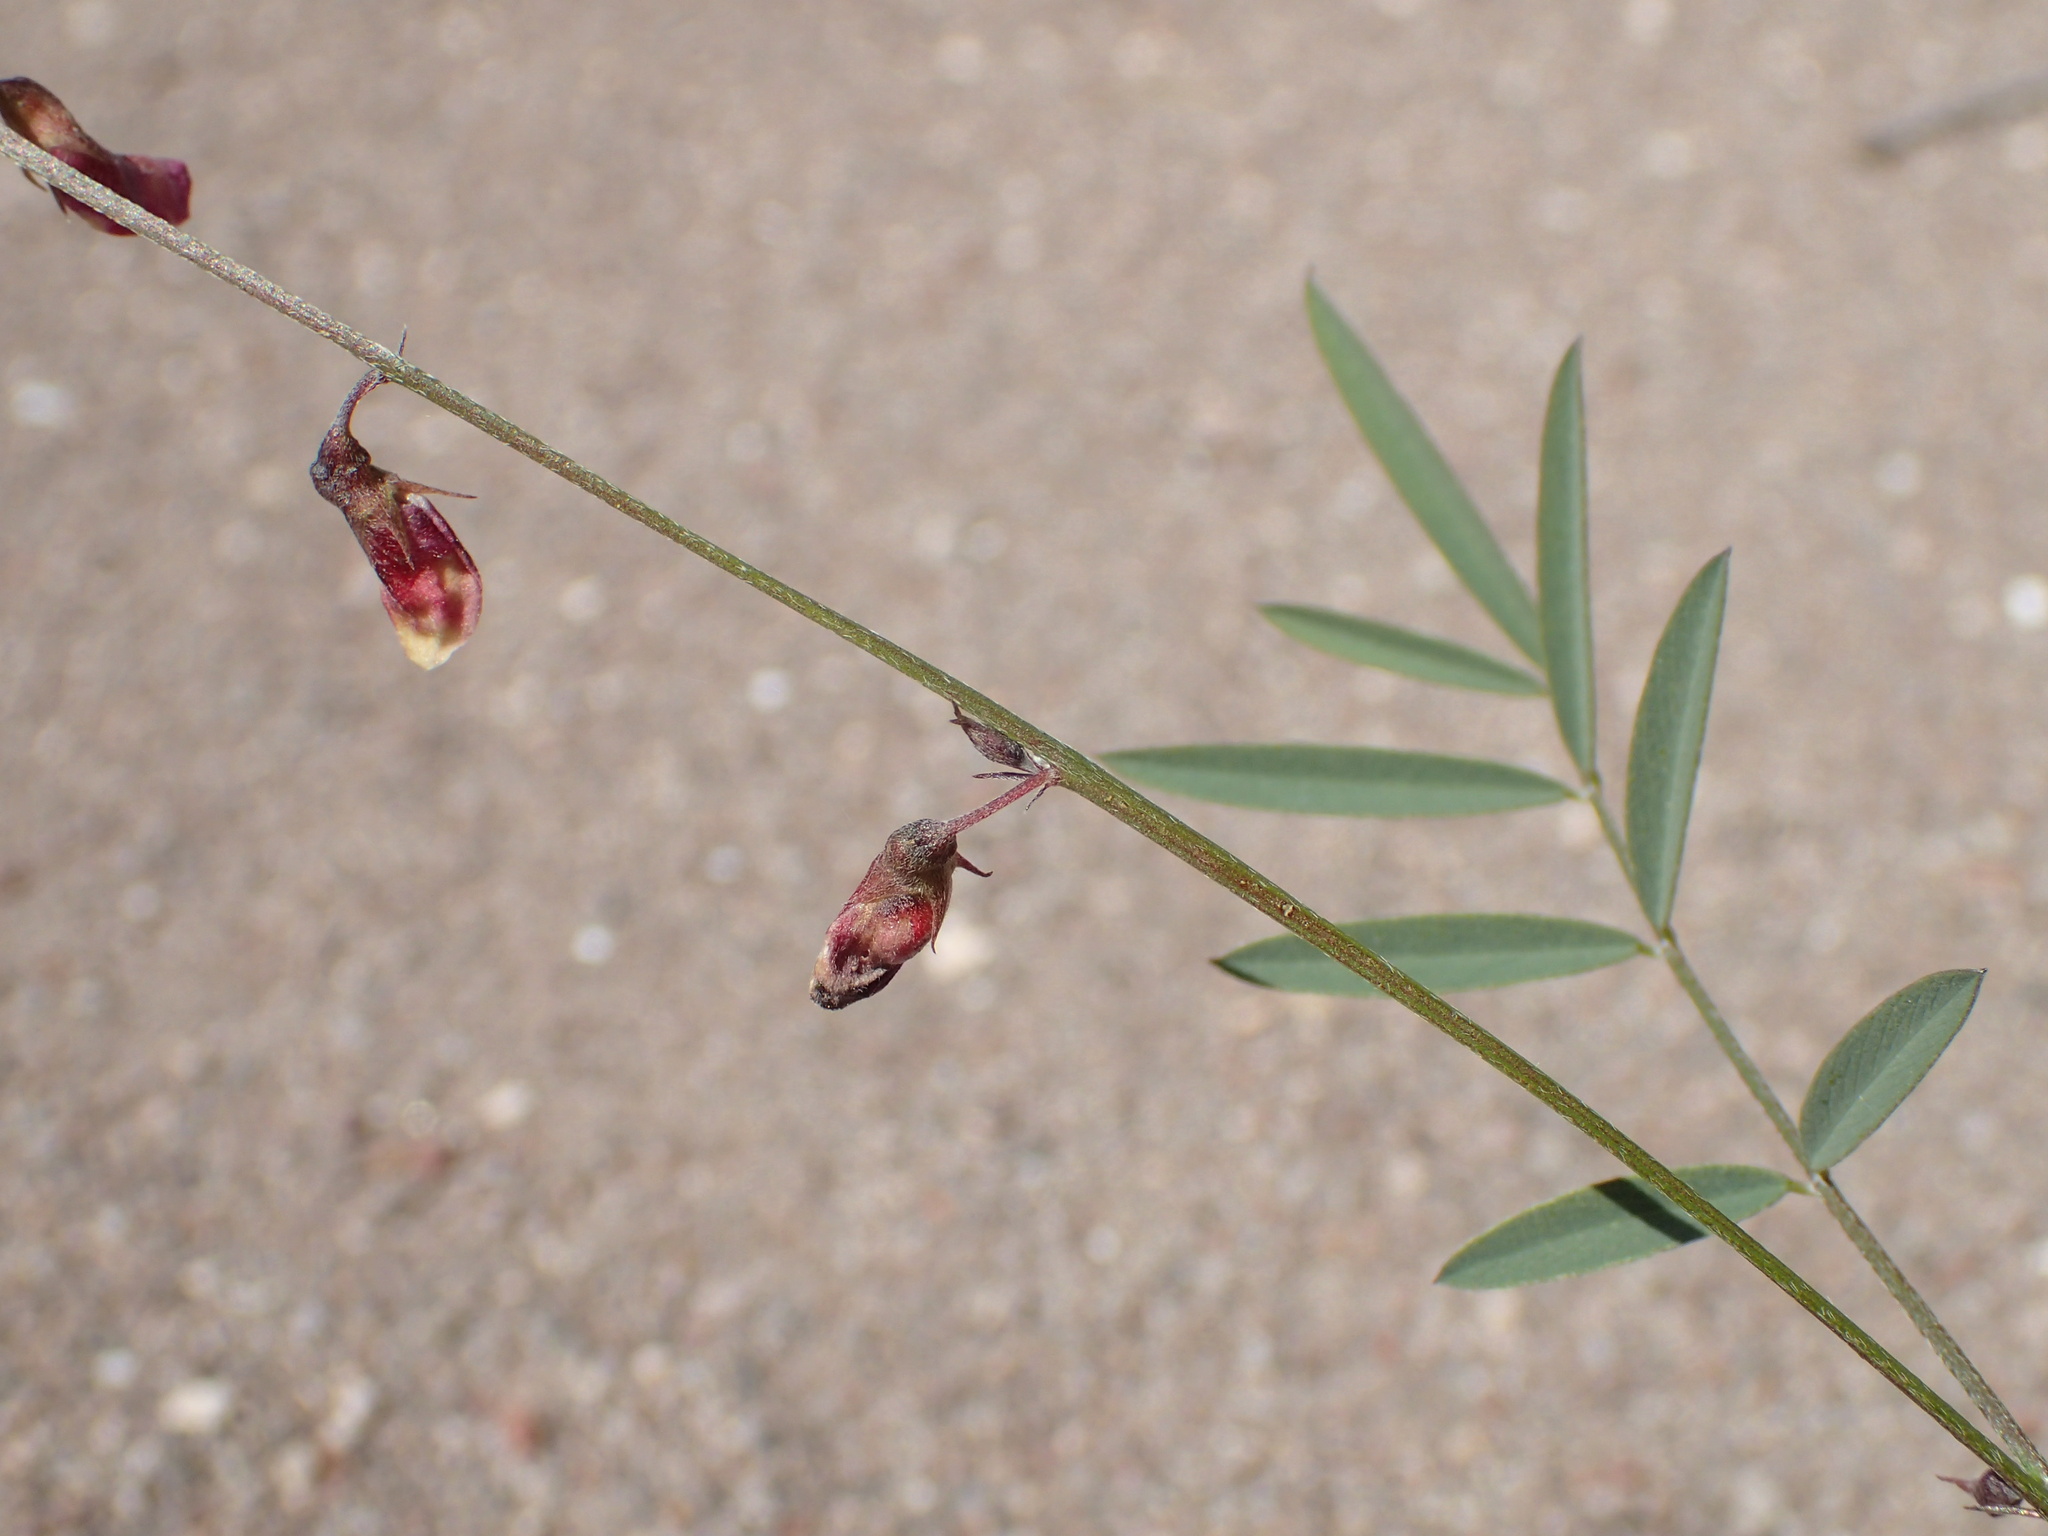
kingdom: Plantae
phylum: Tracheophyta
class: Magnoliopsida
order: Fabales
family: Fabaceae
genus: Tephrosia
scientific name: Tephrosia vicioides
